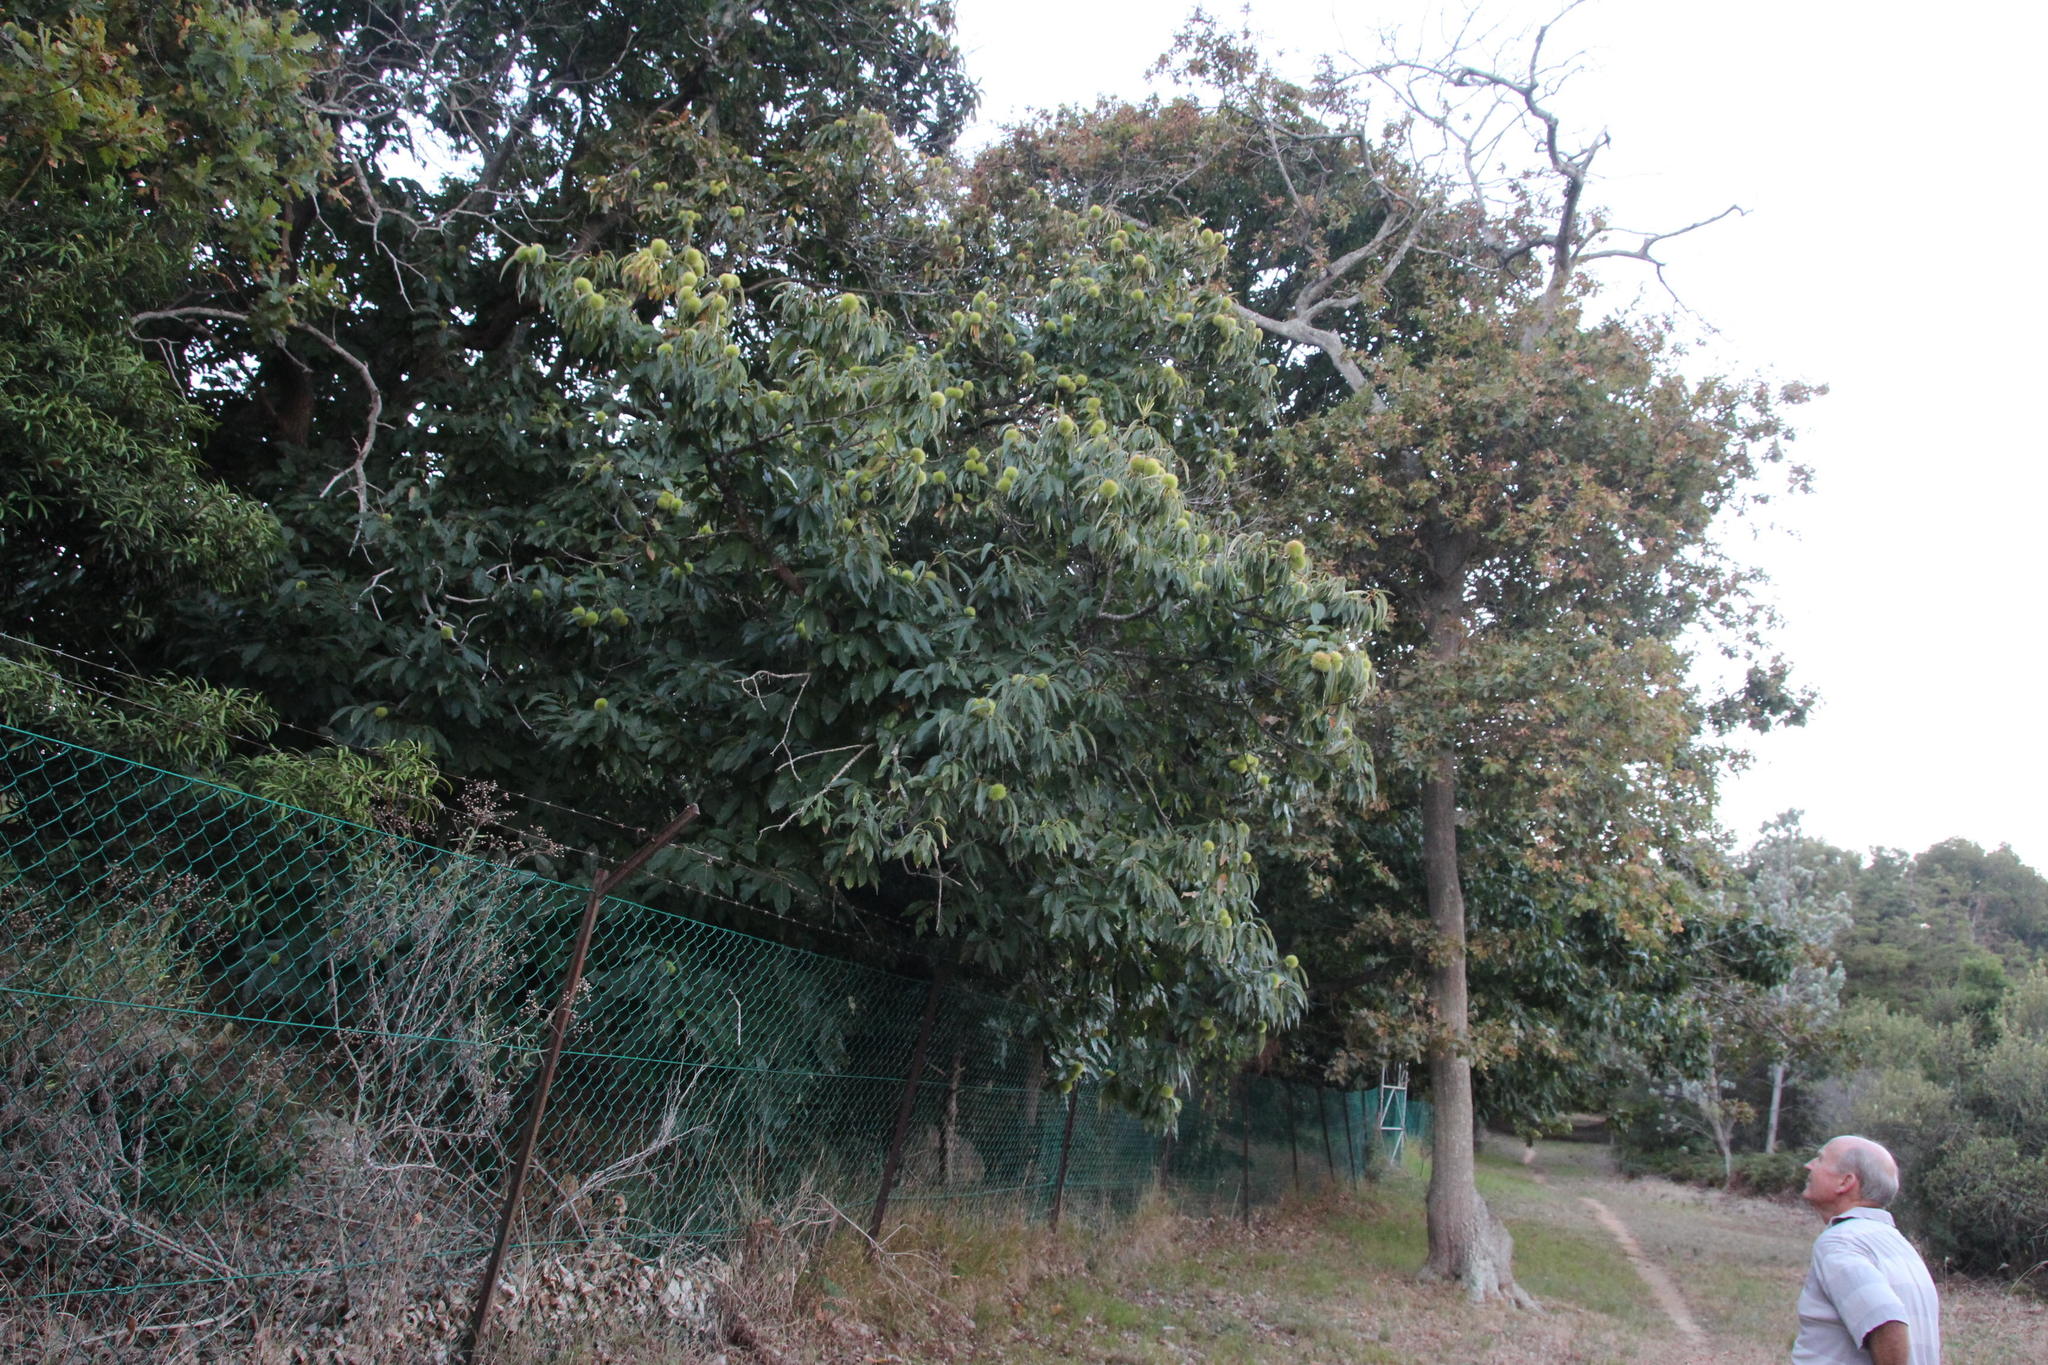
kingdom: Plantae
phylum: Tracheophyta
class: Magnoliopsida
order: Fagales
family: Fagaceae
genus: Castanea
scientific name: Castanea sativa
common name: Sweet chestnut
